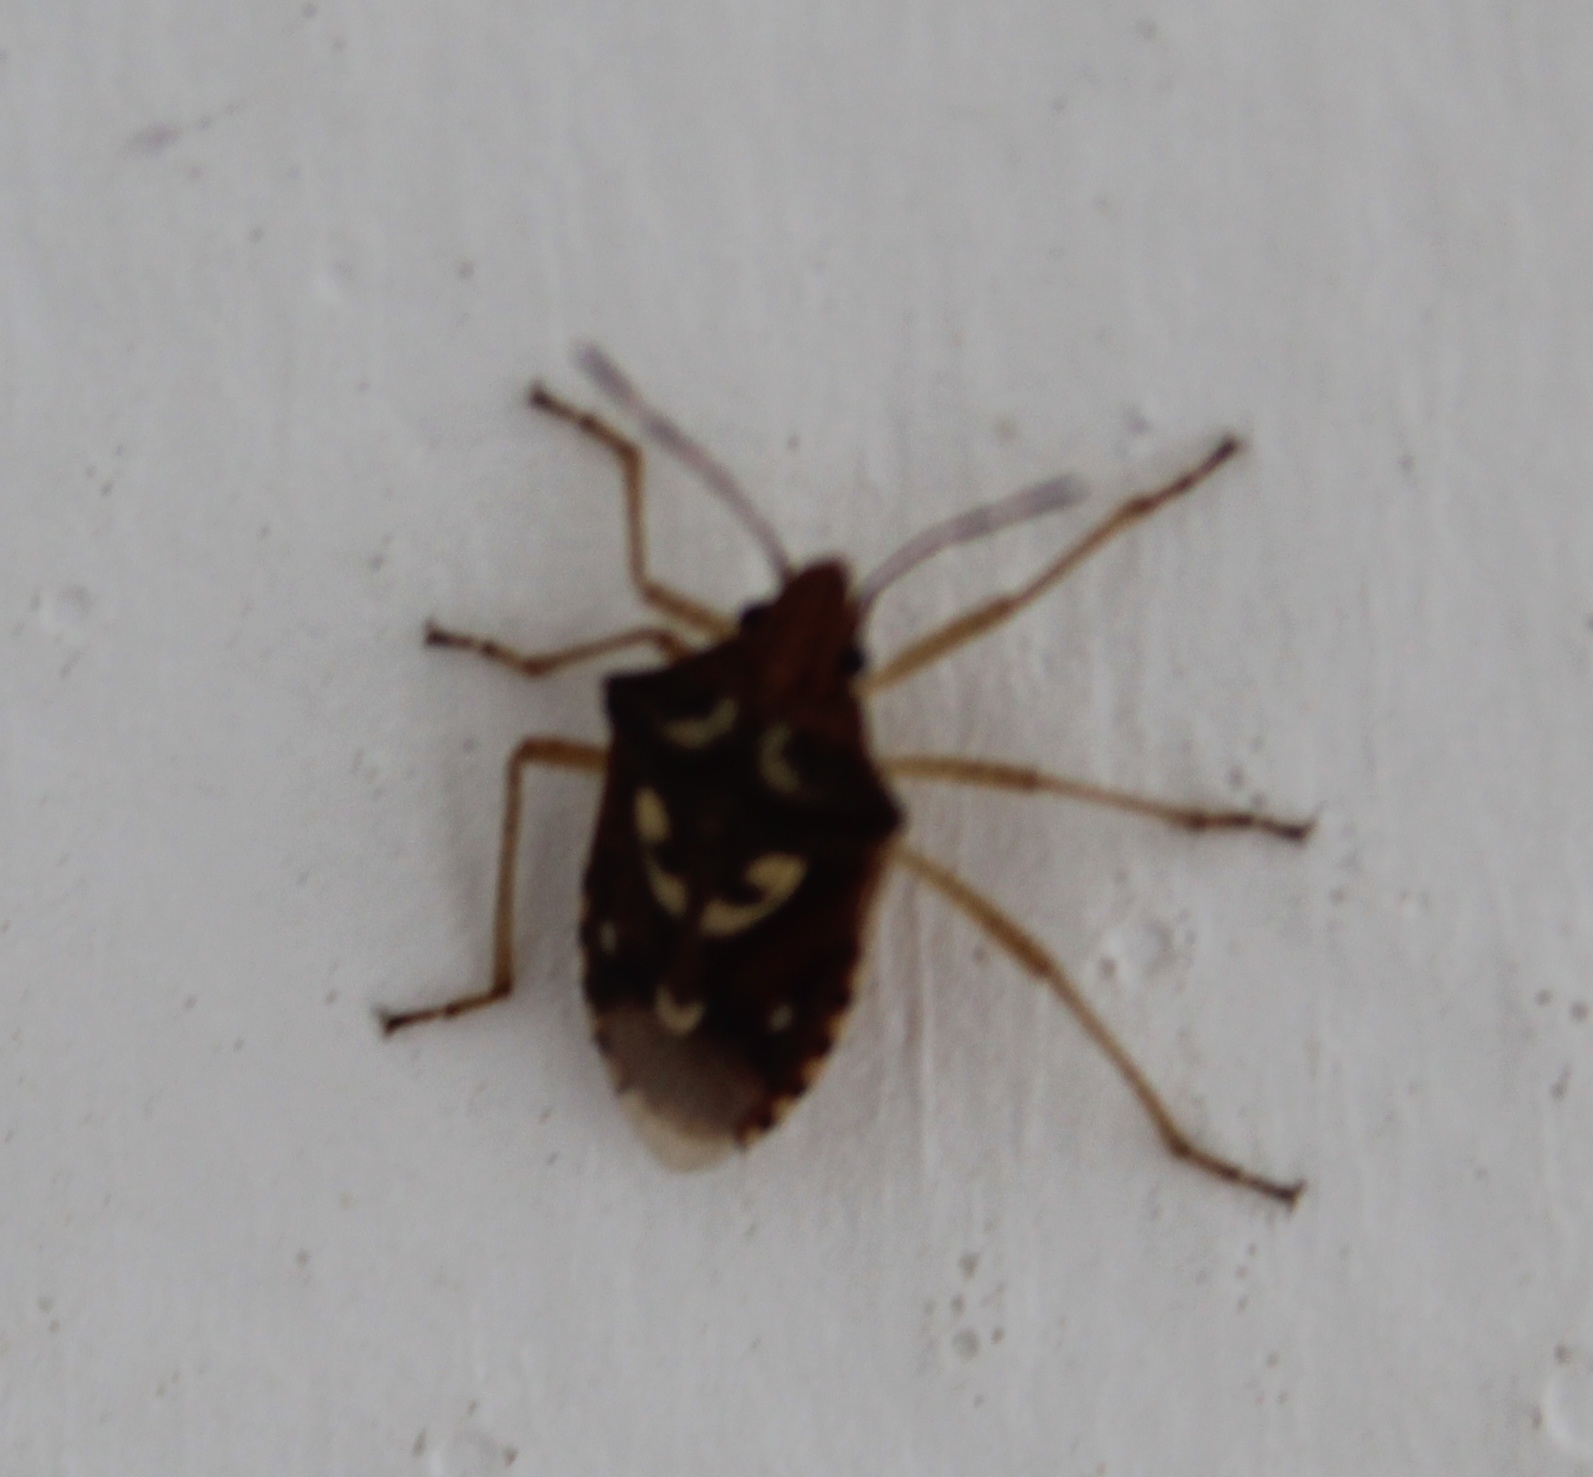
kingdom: Animalia
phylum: Arthropoda
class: Insecta
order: Hemiptera
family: Pentatomidae
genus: Oebalus
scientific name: Oebalus poecilus
